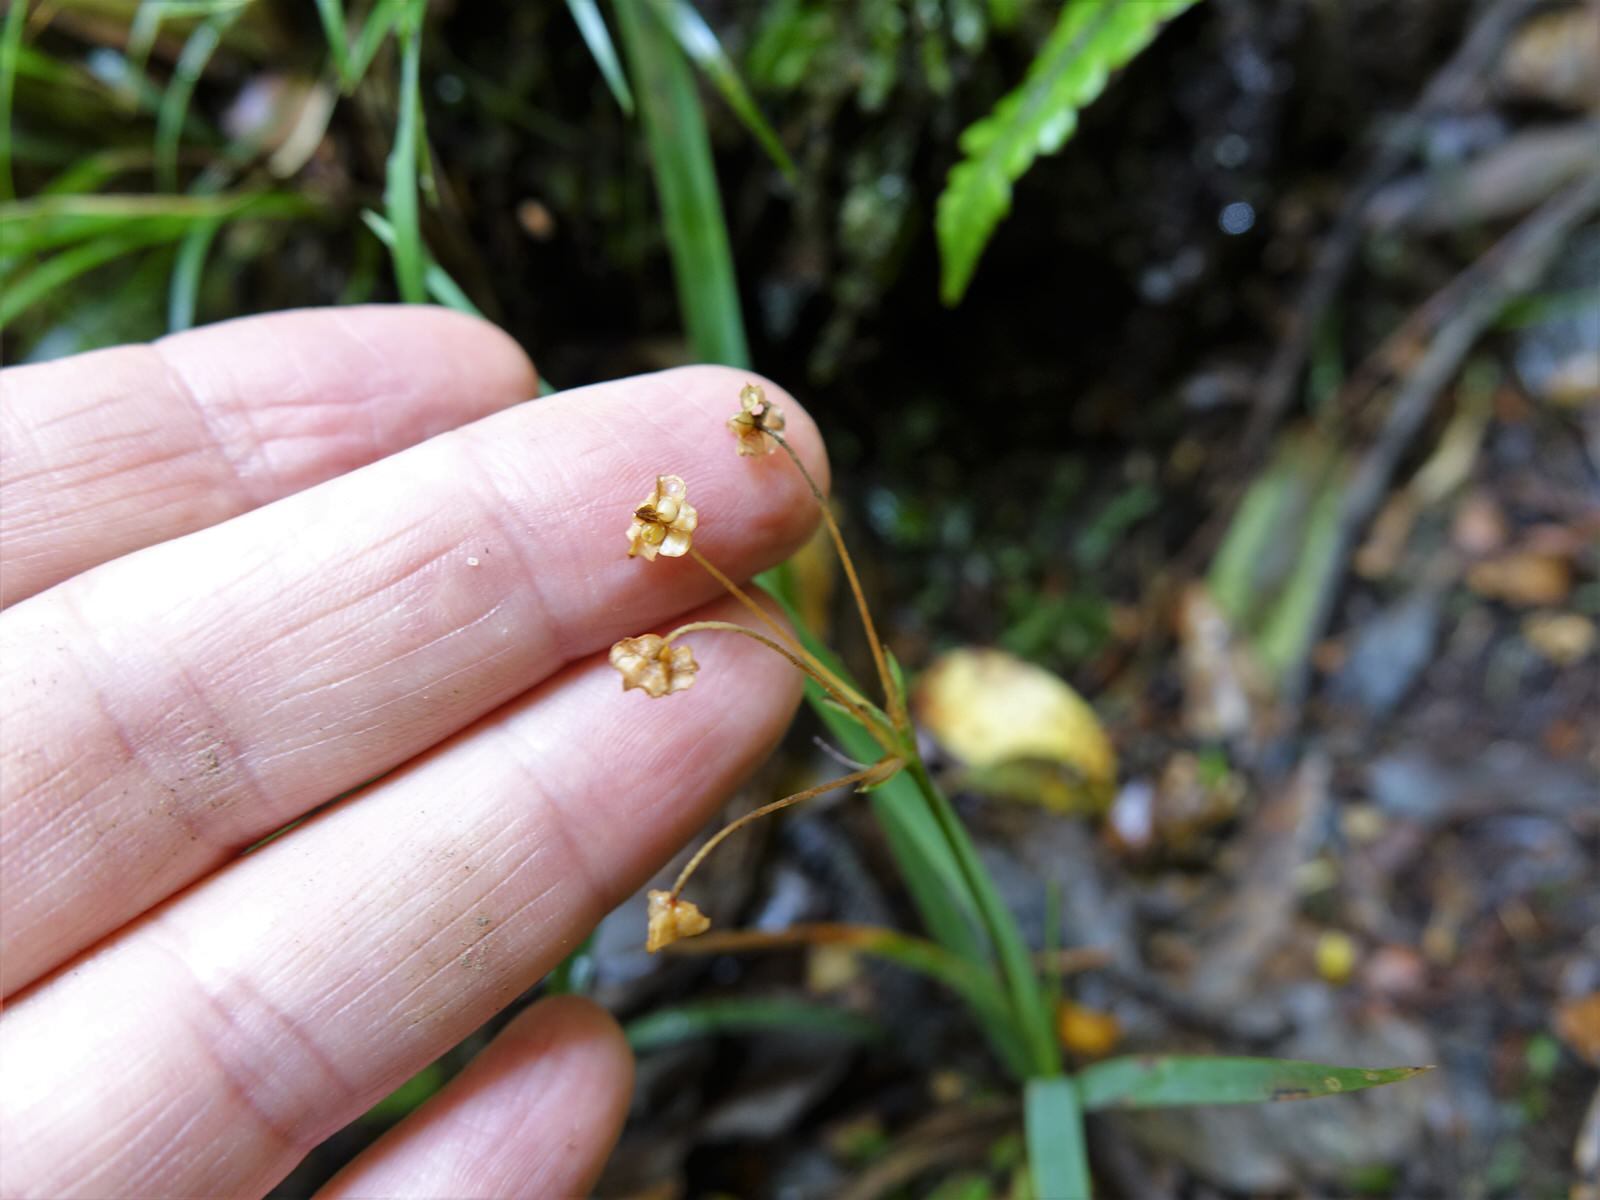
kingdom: Plantae
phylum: Tracheophyta
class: Liliopsida
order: Asparagales
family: Iridaceae
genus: Libertia
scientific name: Libertia micrantha
